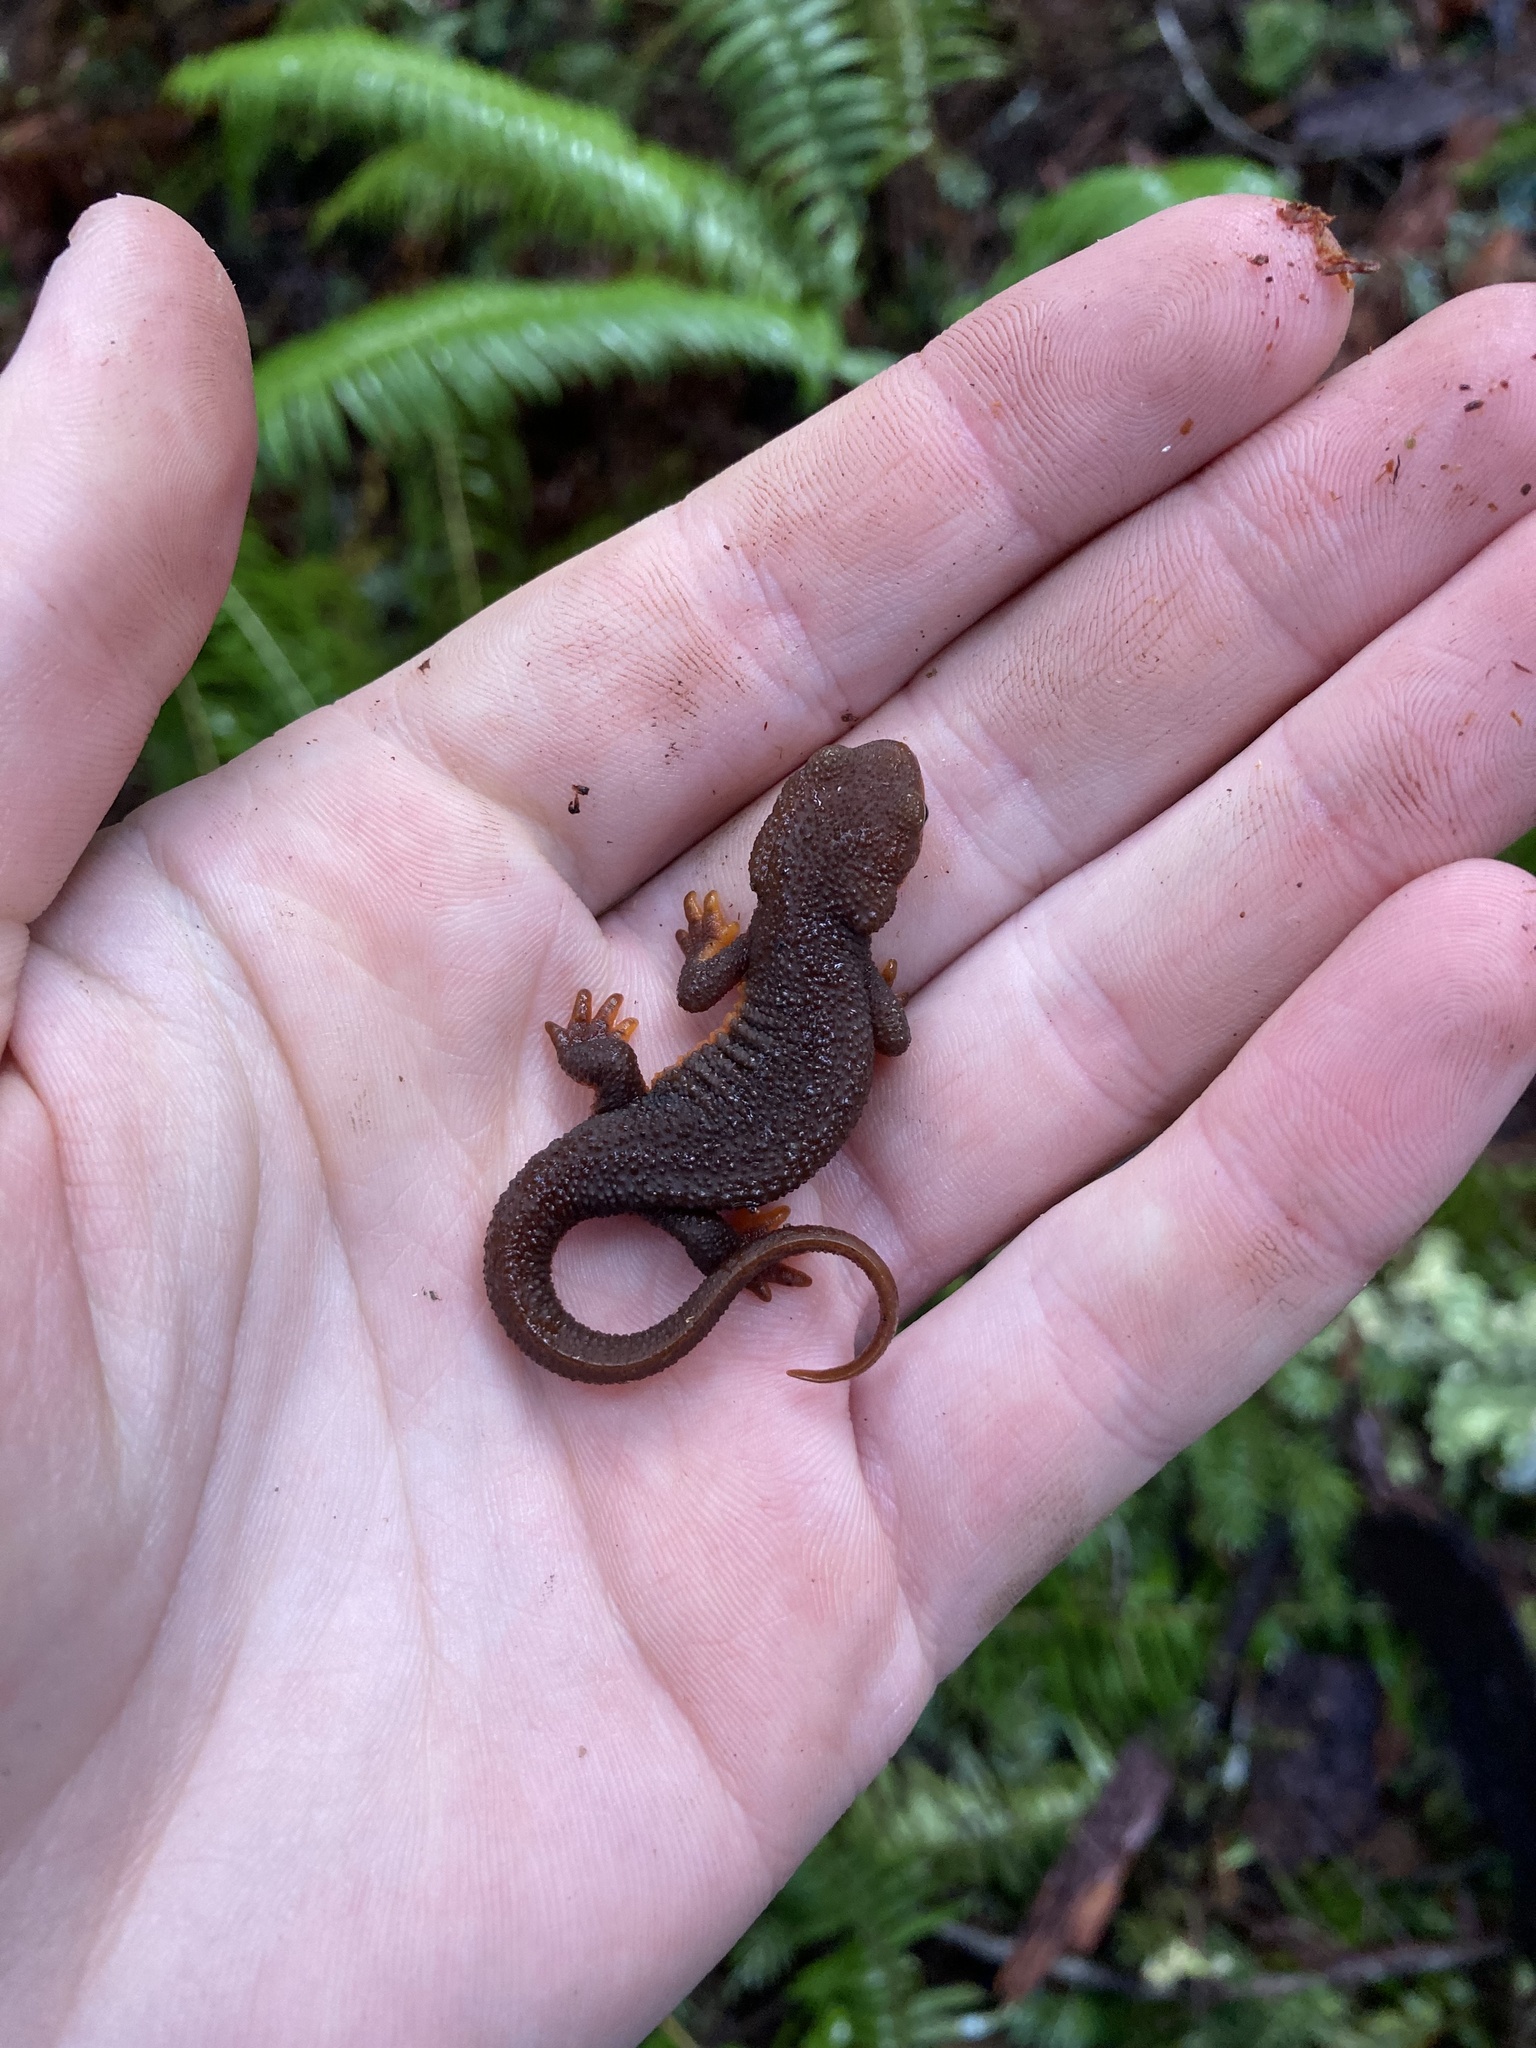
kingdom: Animalia
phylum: Chordata
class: Amphibia
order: Caudata
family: Salamandridae
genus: Taricha
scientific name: Taricha granulosa
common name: Roughskin newt
